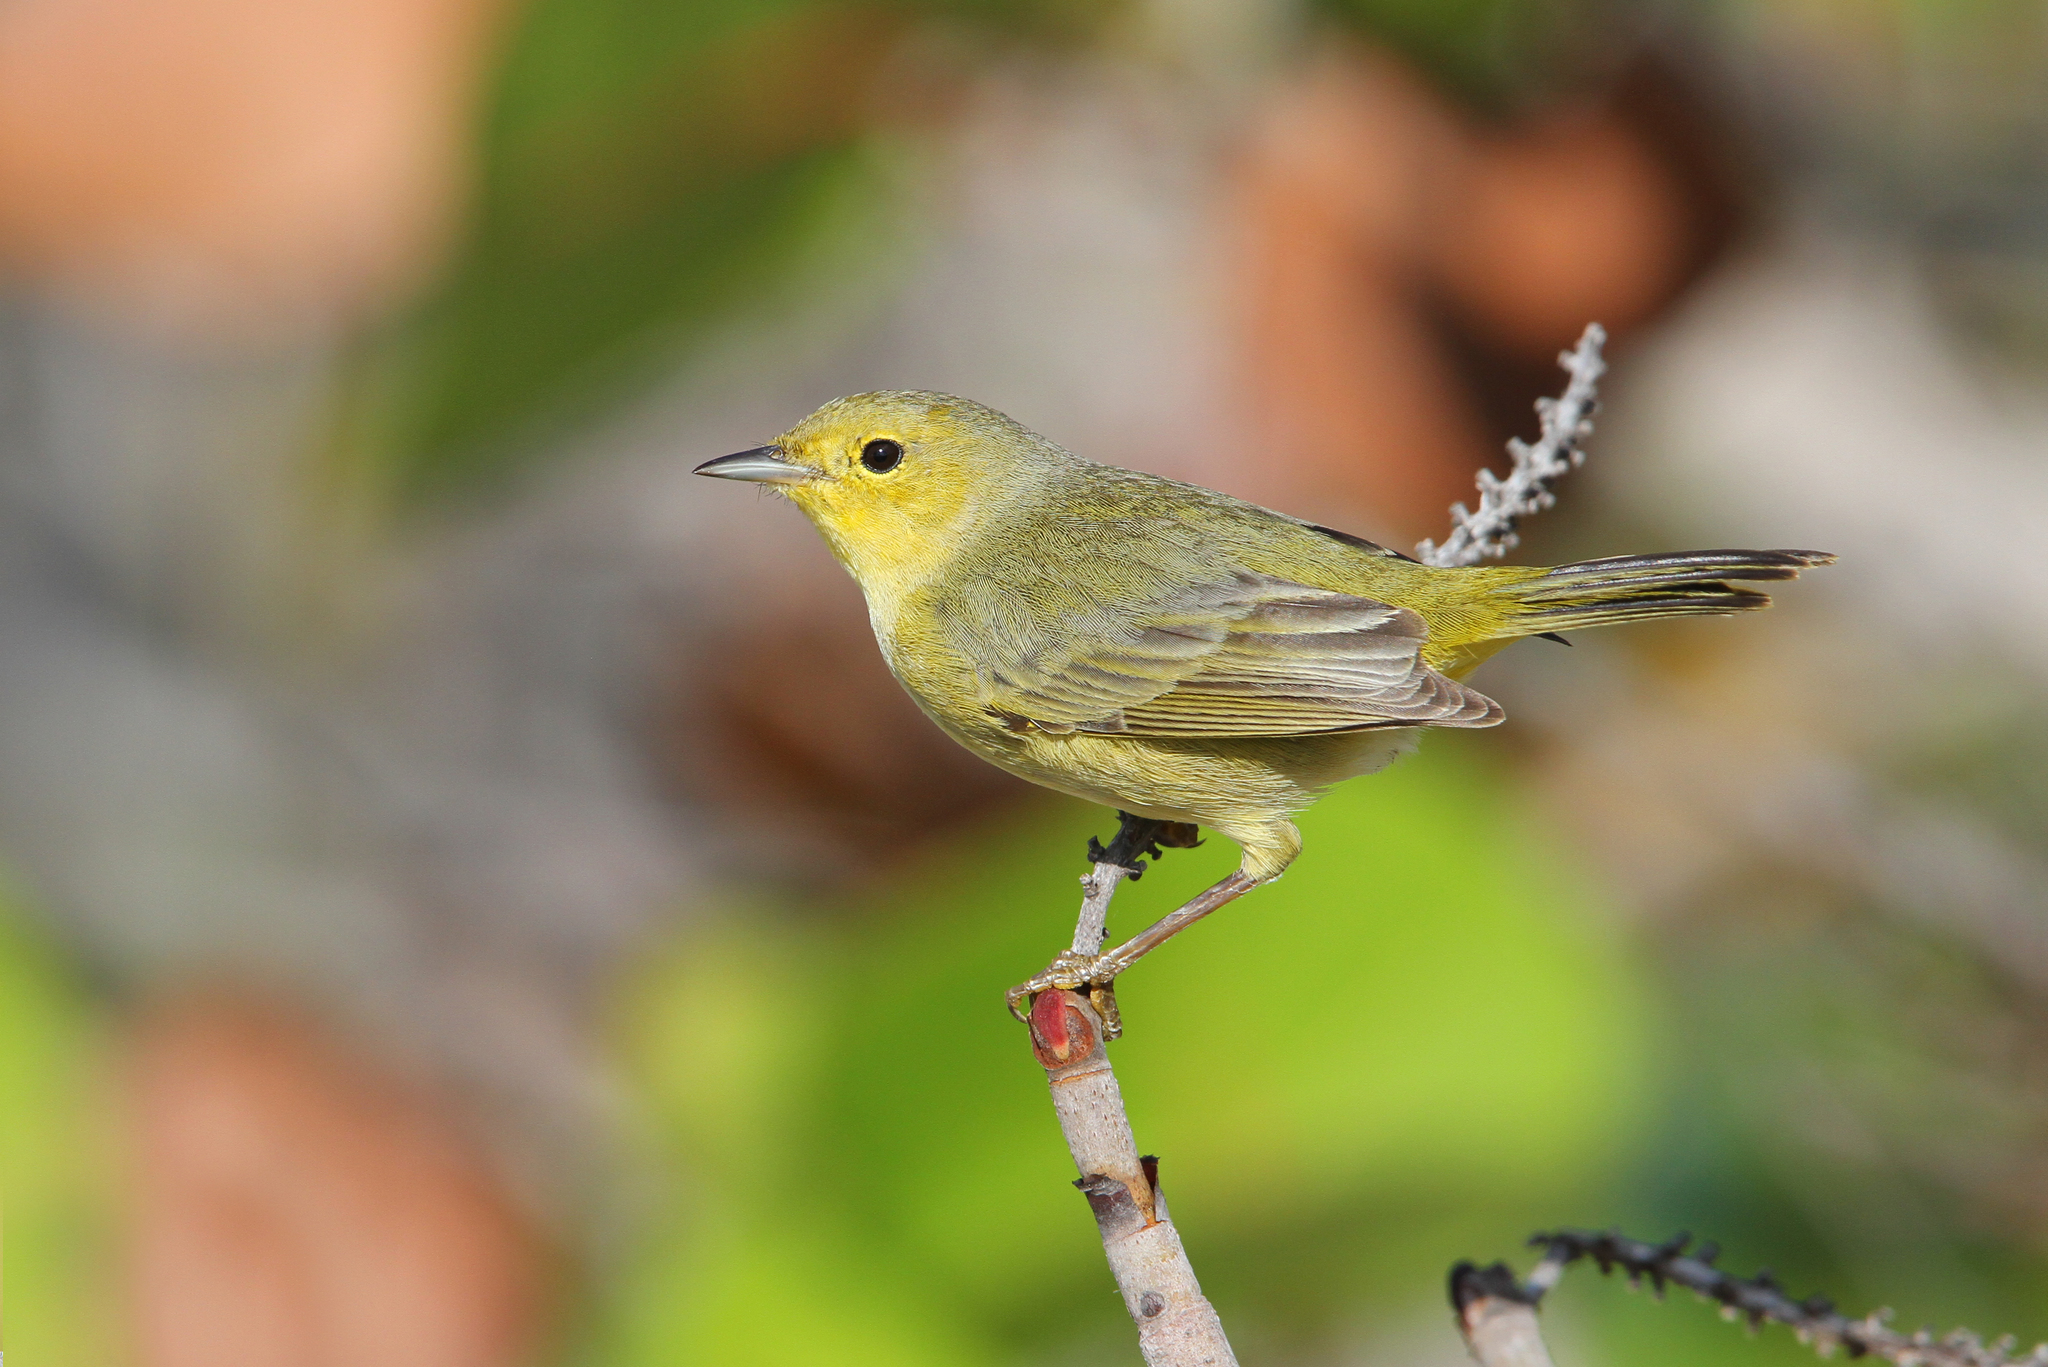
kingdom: Animalia
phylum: Chordata
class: Aves
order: Passeriformes
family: Parulidae
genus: Setophaga
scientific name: Setophaga petechia
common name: Yellow warbler
